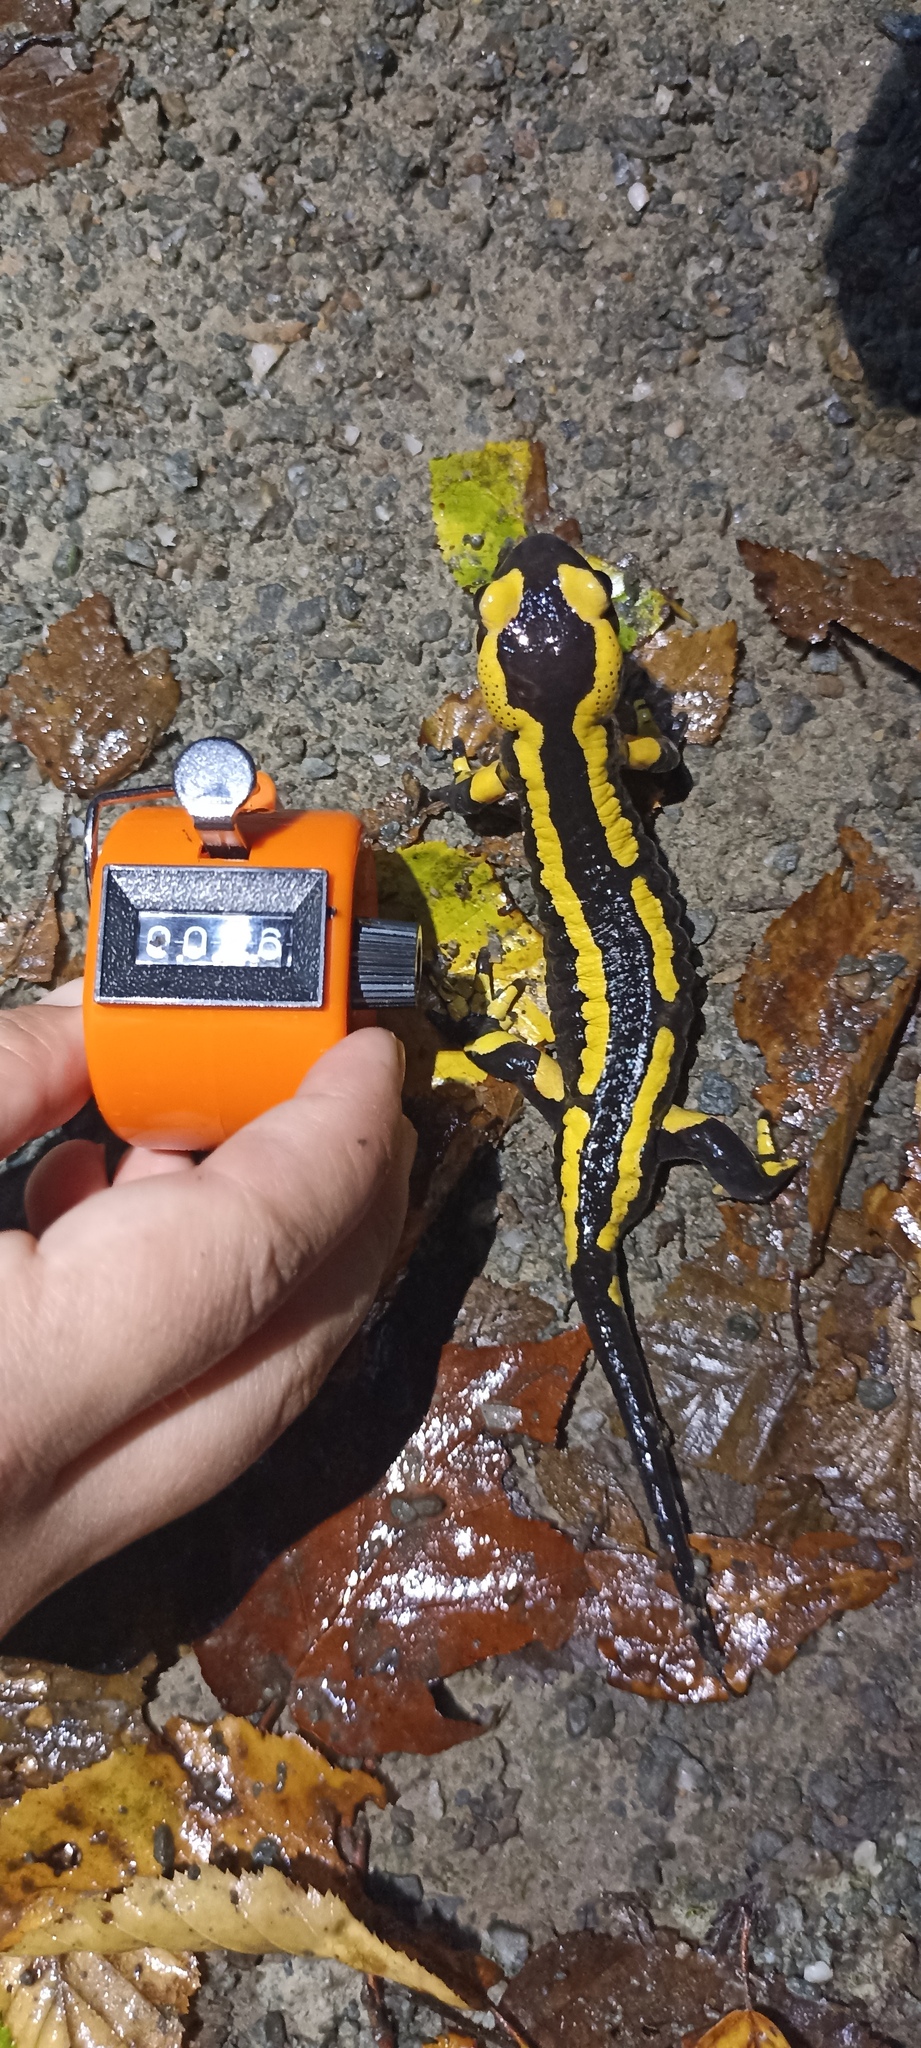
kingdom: Animalia
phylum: Chordata
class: Amphibia
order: Caudata
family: Salamandridae
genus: Salamandra
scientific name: Salamandra salamandra
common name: Fire salamander
